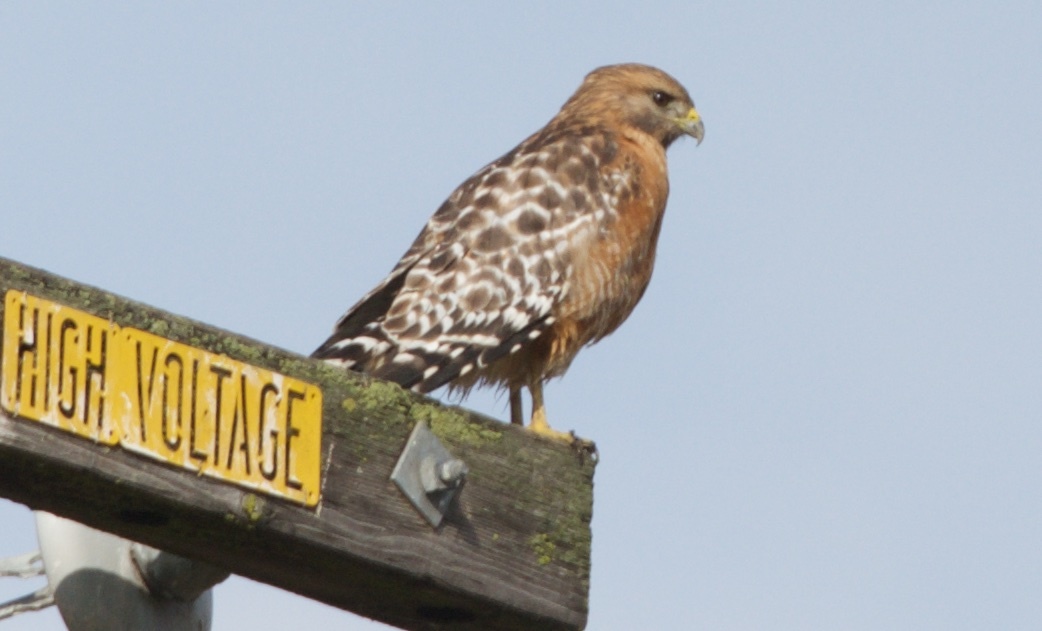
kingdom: Animalia
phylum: Chordata
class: Aves
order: Accipitriformes
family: Accipitridae
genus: Buteo
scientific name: Buteo lineatus
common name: Red-shouldered hawk
